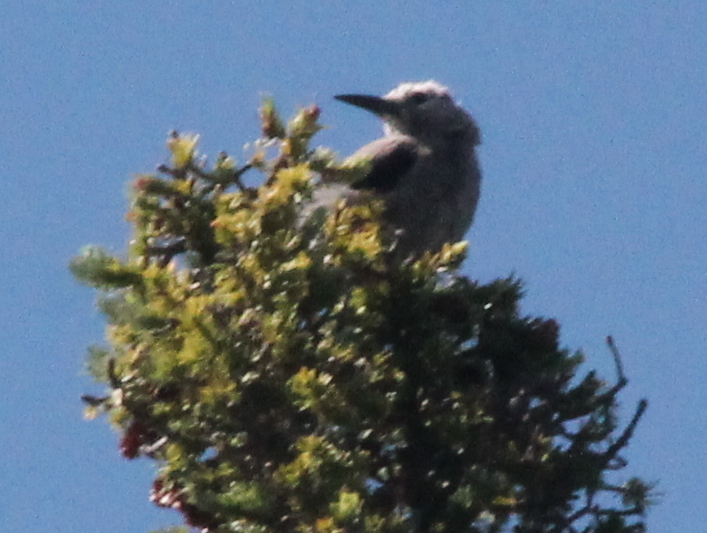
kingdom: Animalia
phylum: Chordata
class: Aves
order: Passeriformes
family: Corvidae
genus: Nucifraga
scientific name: Nucifraga columbiana
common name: Clark's nutcracker
